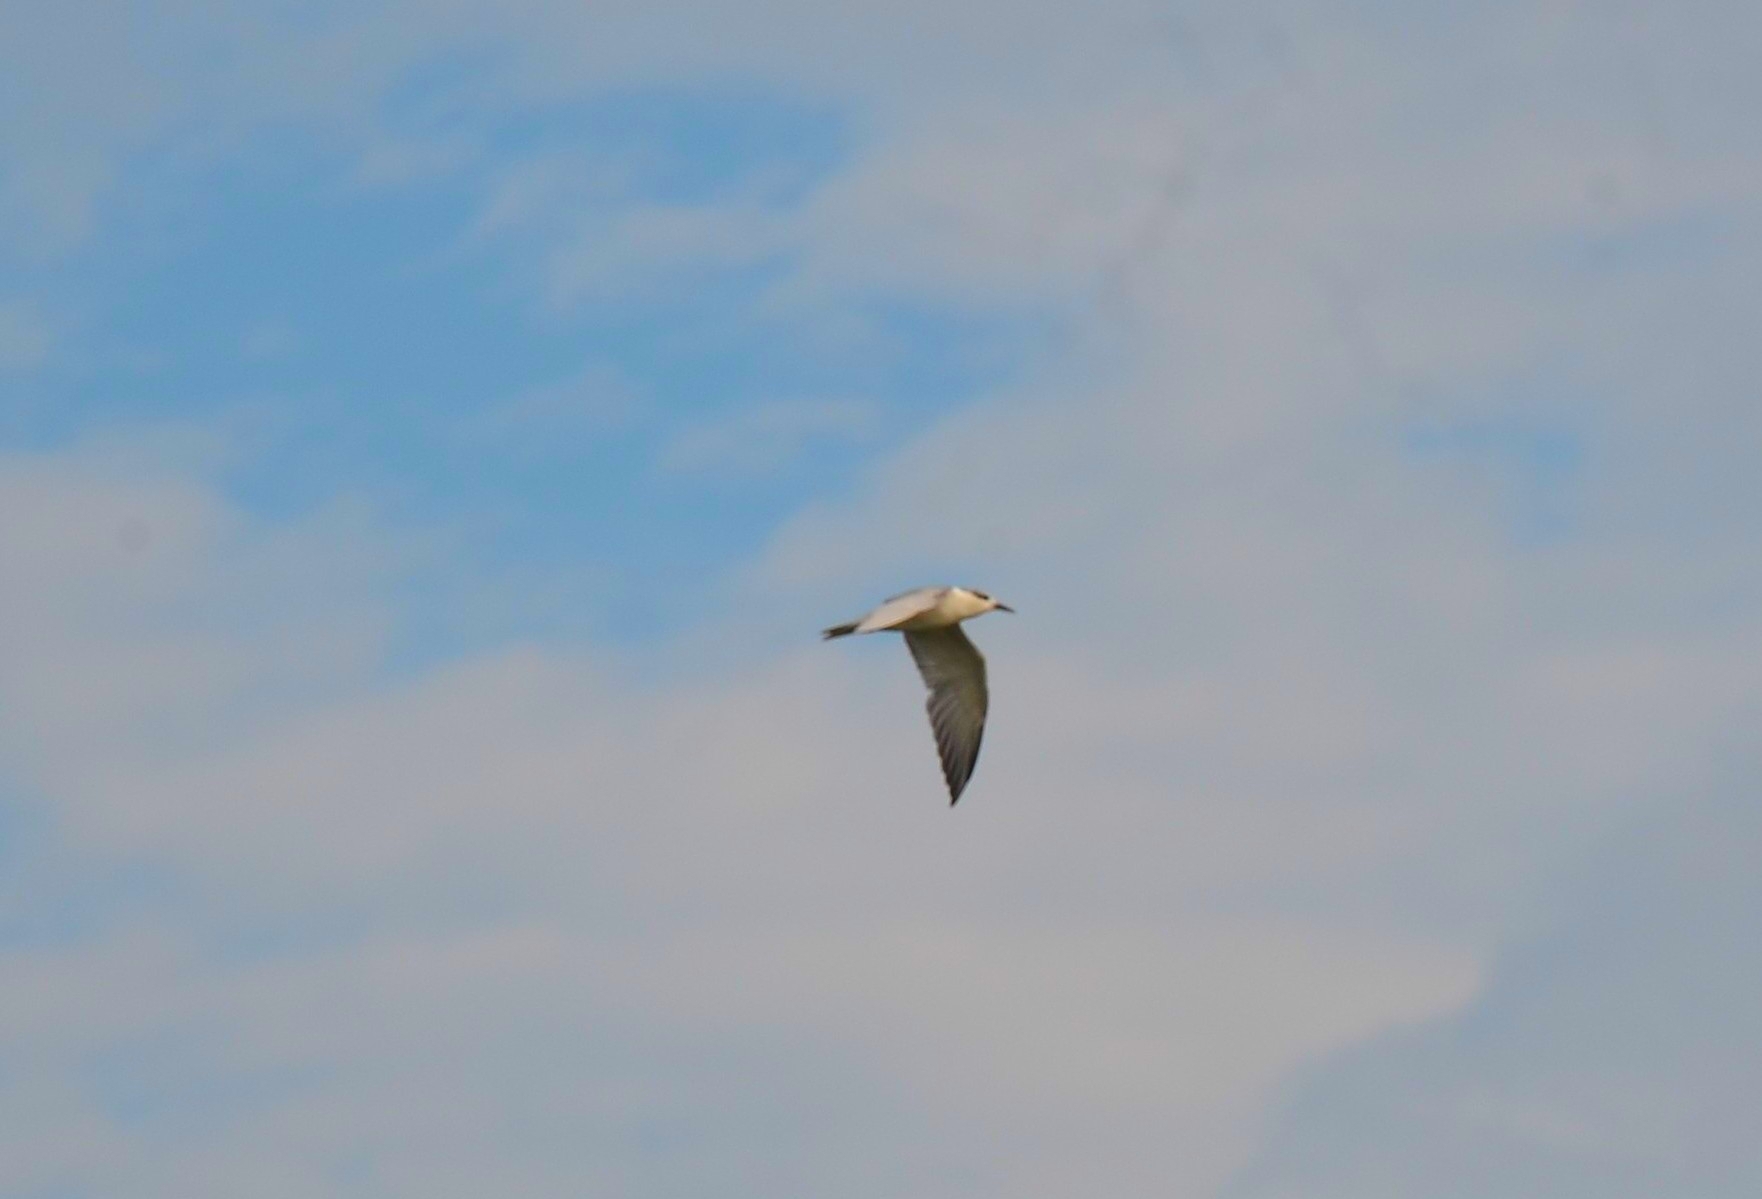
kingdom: Animalia
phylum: Chordata
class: Aves
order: Charadriiformes
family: Laridae
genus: Chlidonias
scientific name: Chlidonias hybrida
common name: Whiskered tern
